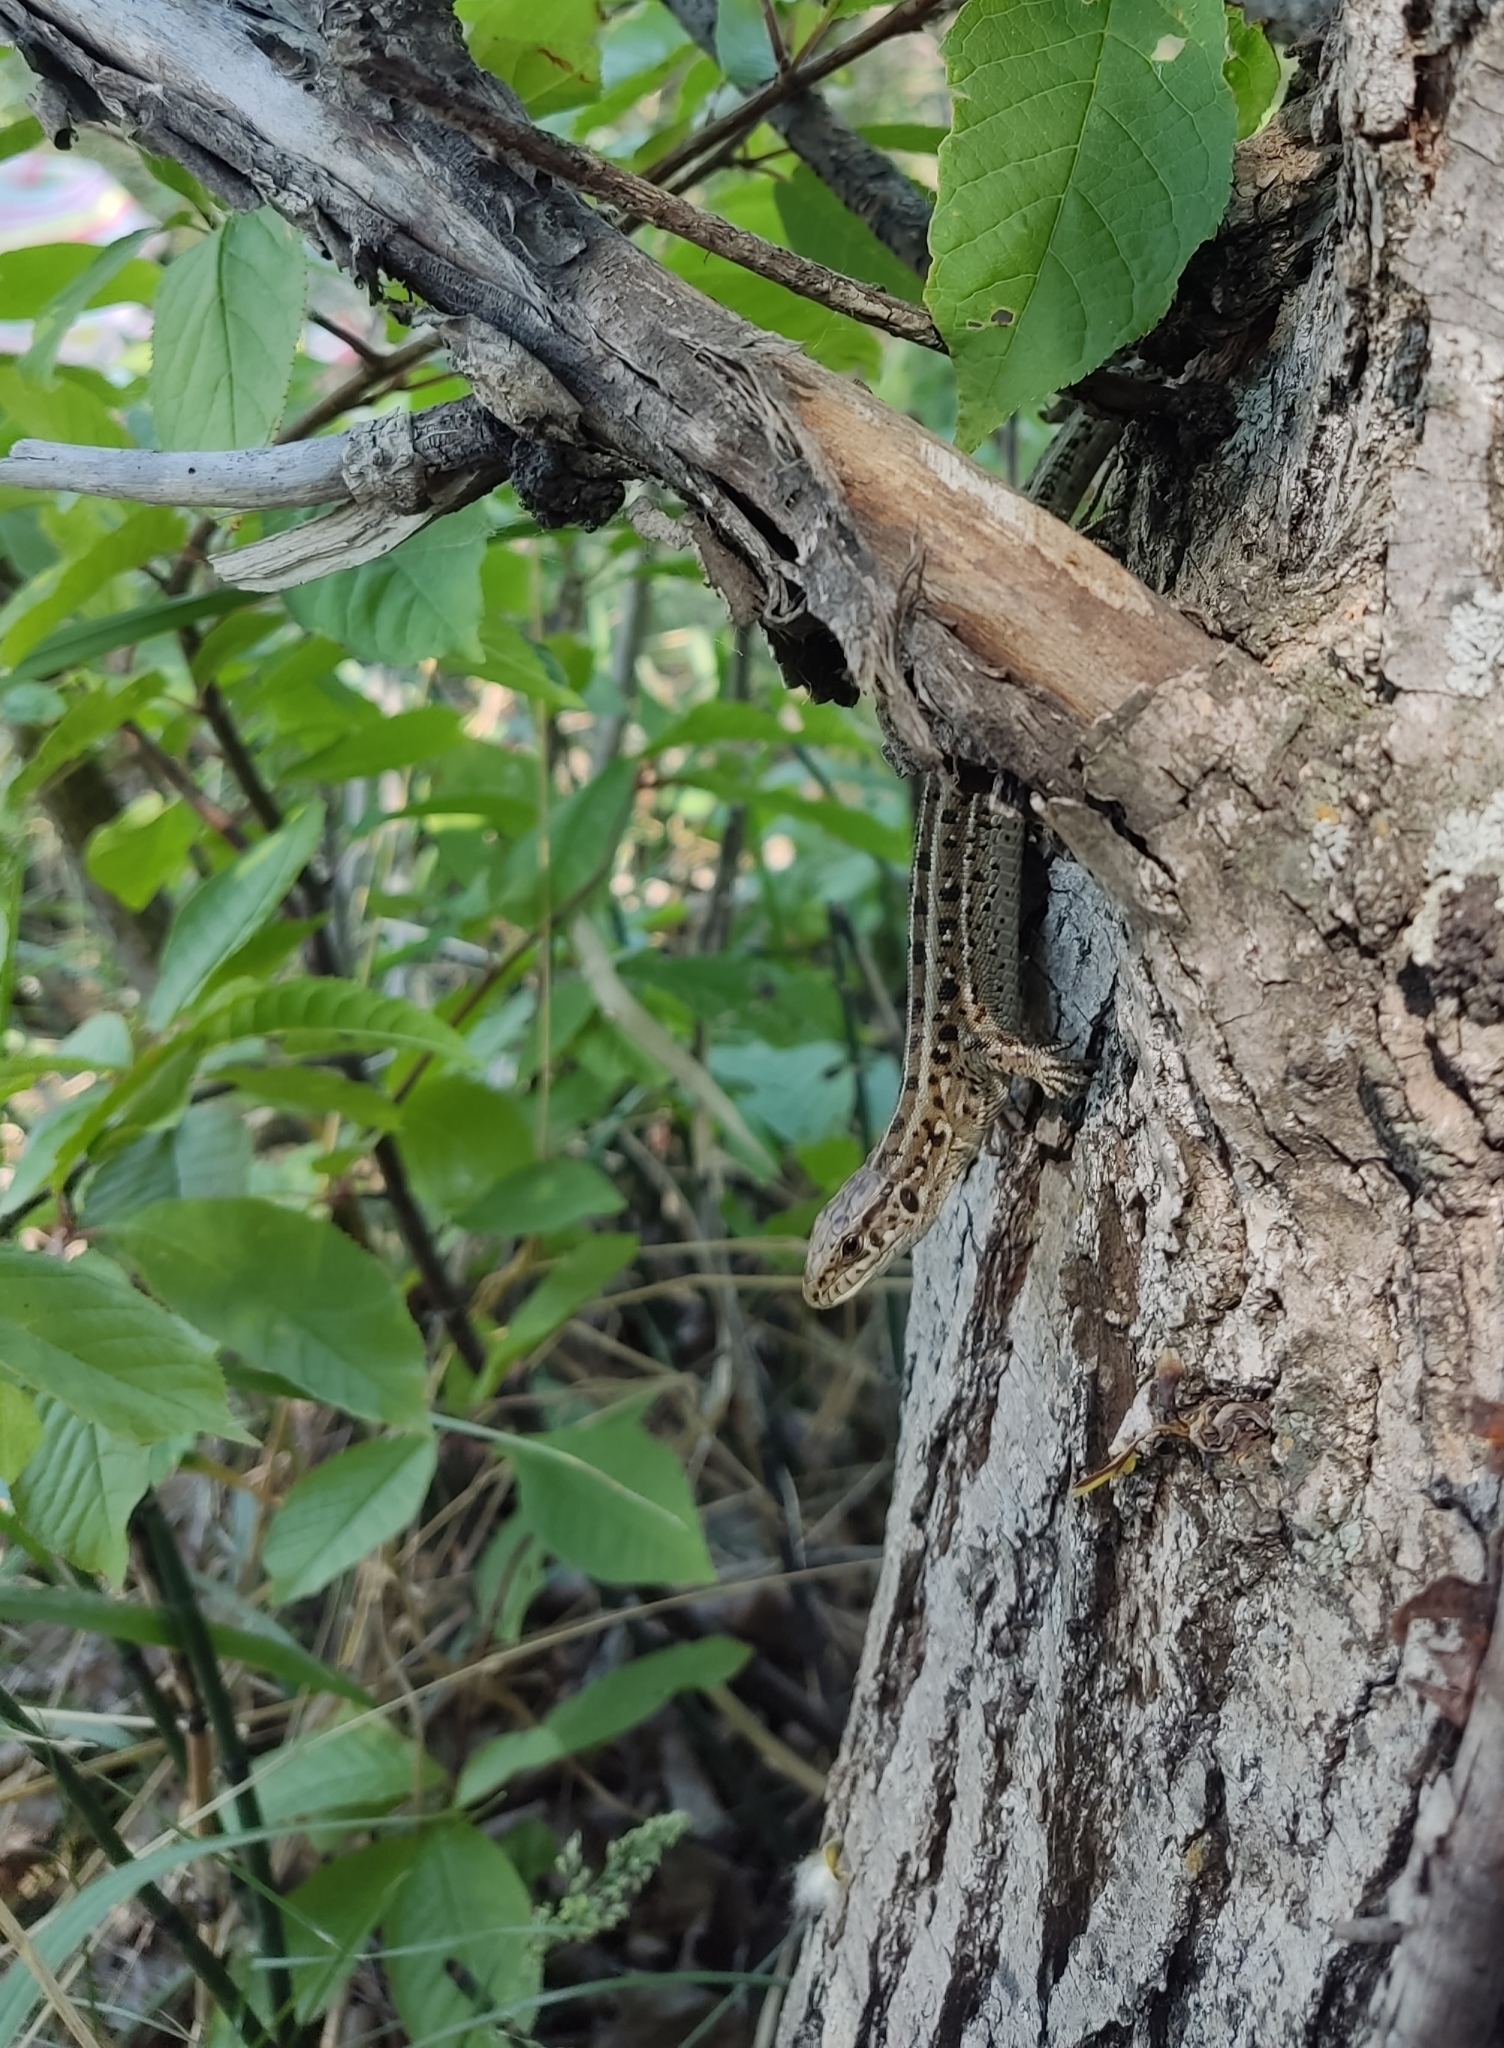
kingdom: Animalia
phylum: Chordata
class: Squamata
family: Lacertidae
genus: Lacerta
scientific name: Lacerta agilis
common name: Sand lizard
